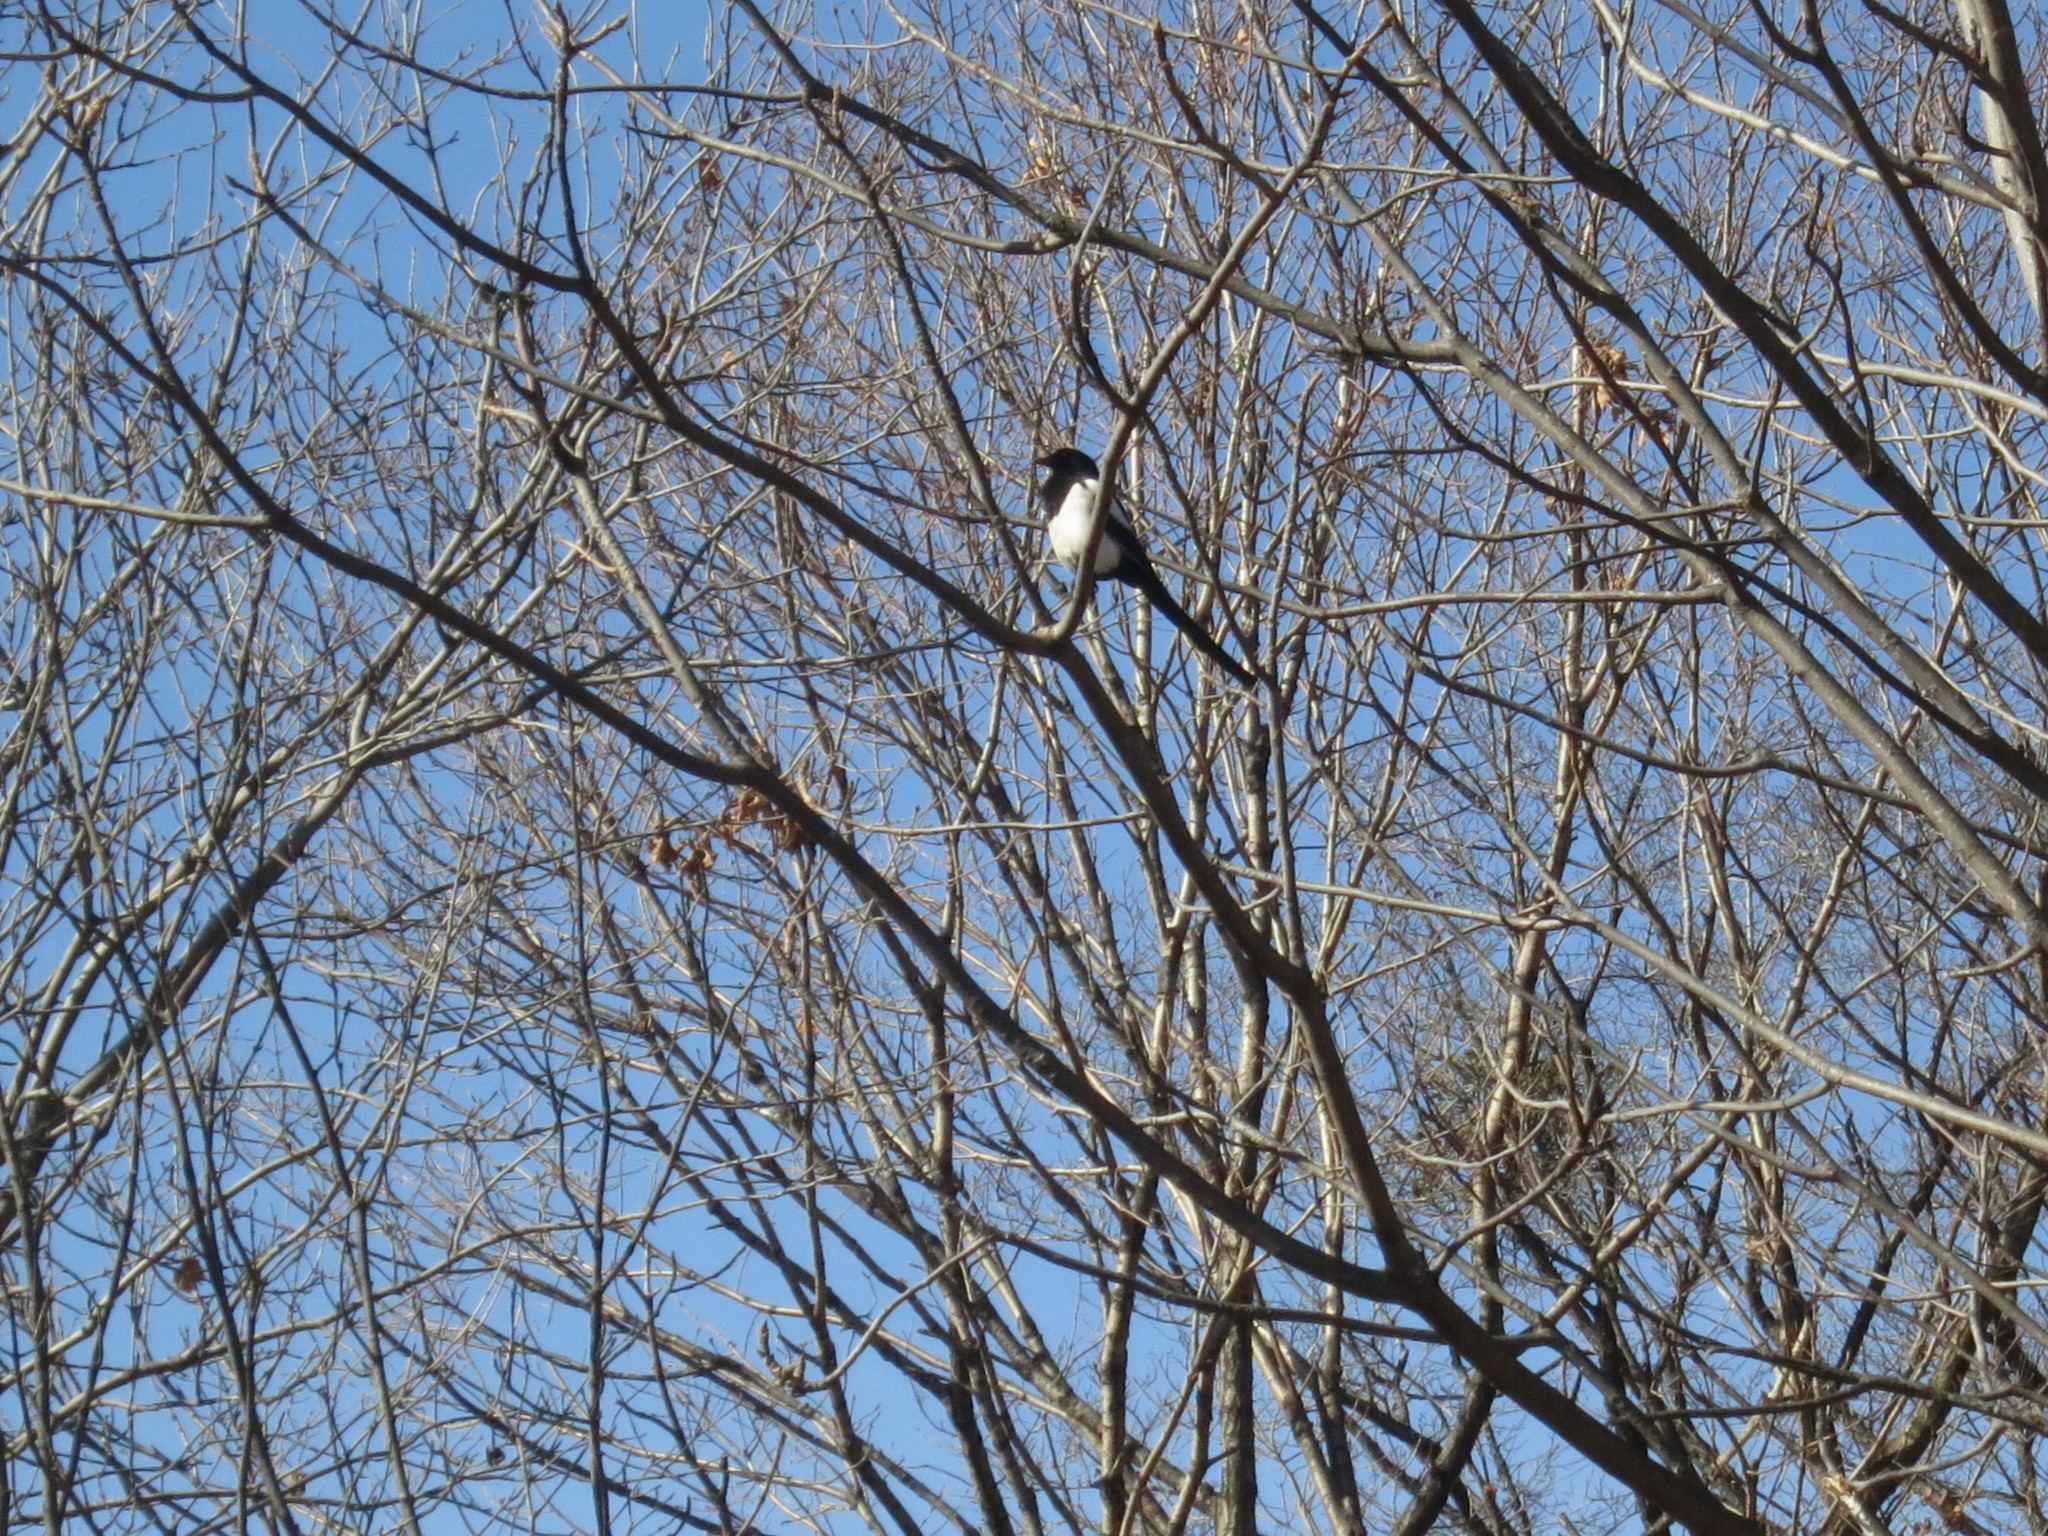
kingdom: Animalia
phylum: Chordata
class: Aves
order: Passeriformes
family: Corvidae
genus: Pica
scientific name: Pica serica
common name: Oriental magpie
